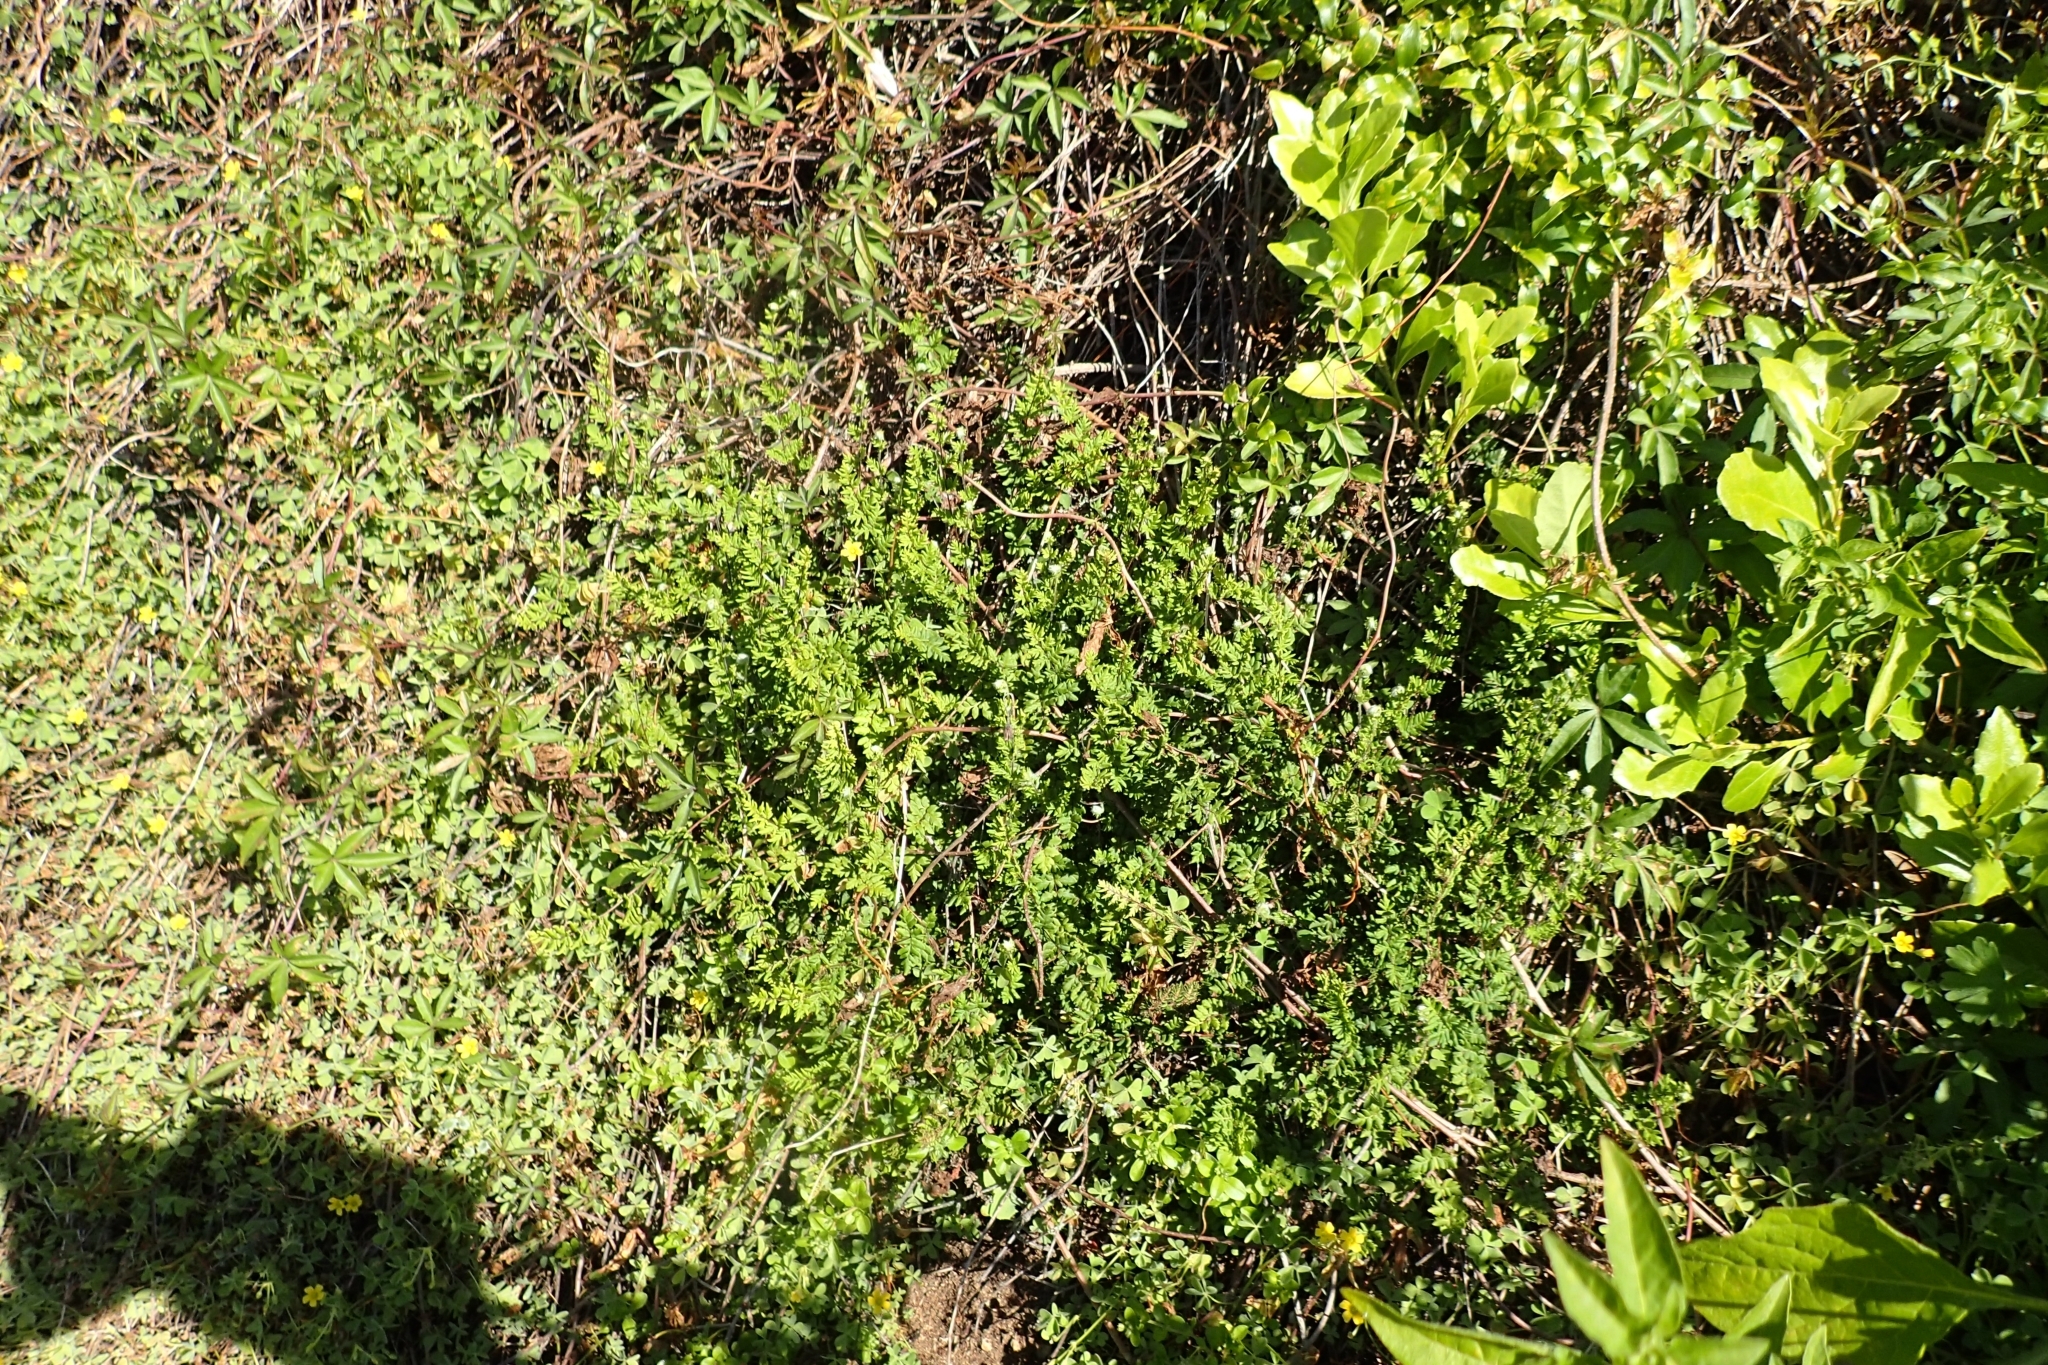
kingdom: Plantae
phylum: Tracheophyta
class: Polypodiopsida
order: Polypodiales
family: Pteridaceae
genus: Cheilanthes
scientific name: Cheilanthes sieberi
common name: Mulga fern
